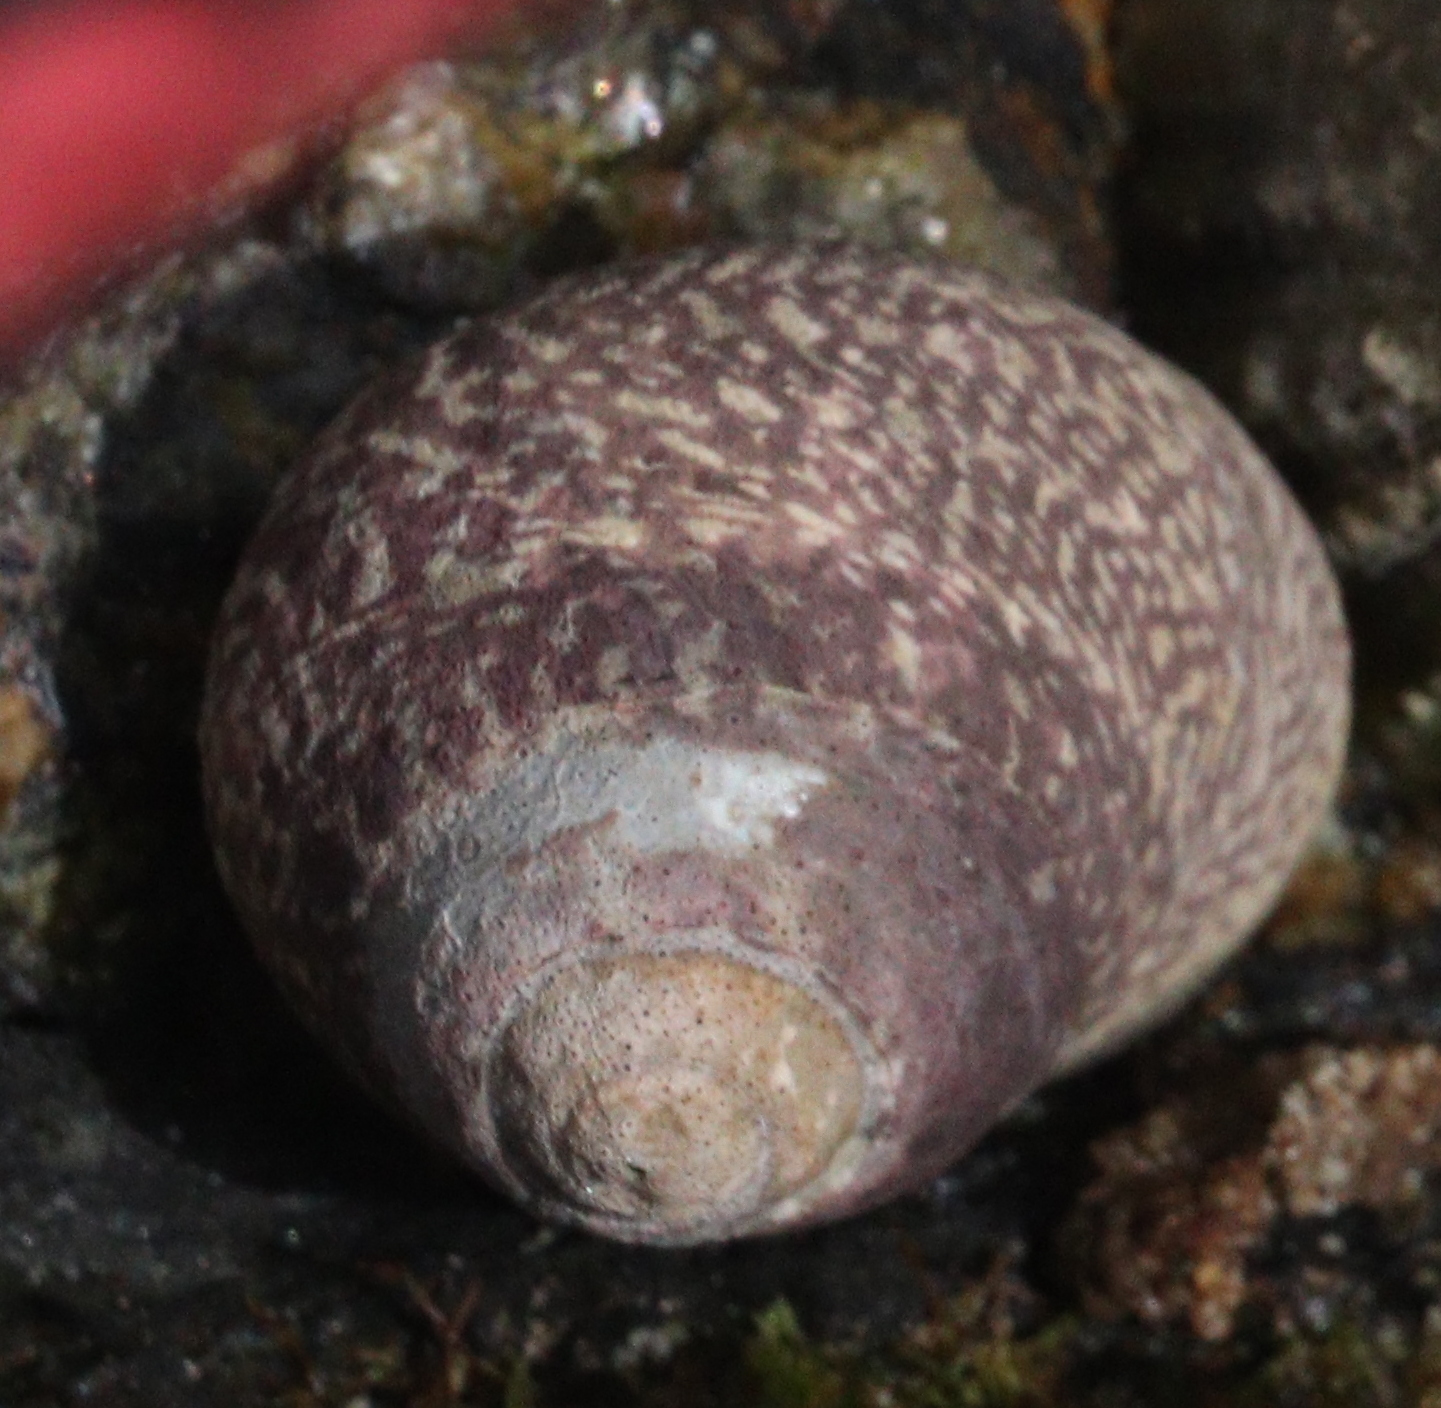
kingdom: Animalia
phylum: Mollusca
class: Gastropoda
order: Trochida
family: Trochidae
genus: Phorcus
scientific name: Phorcus lineatus
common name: Toothed top shell
